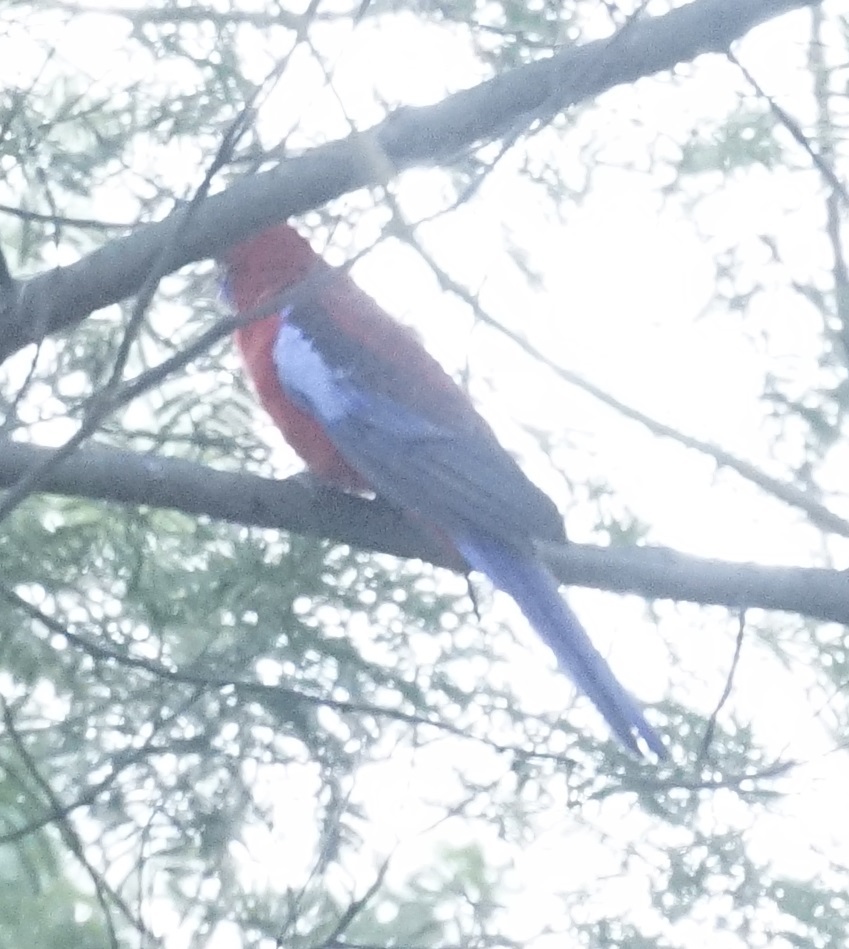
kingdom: Animalia
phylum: Chordata
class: Aves
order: Psittaciformes
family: Psittacidae
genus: Platycercus
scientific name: Platycercus elegans
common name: Crimson rosella
